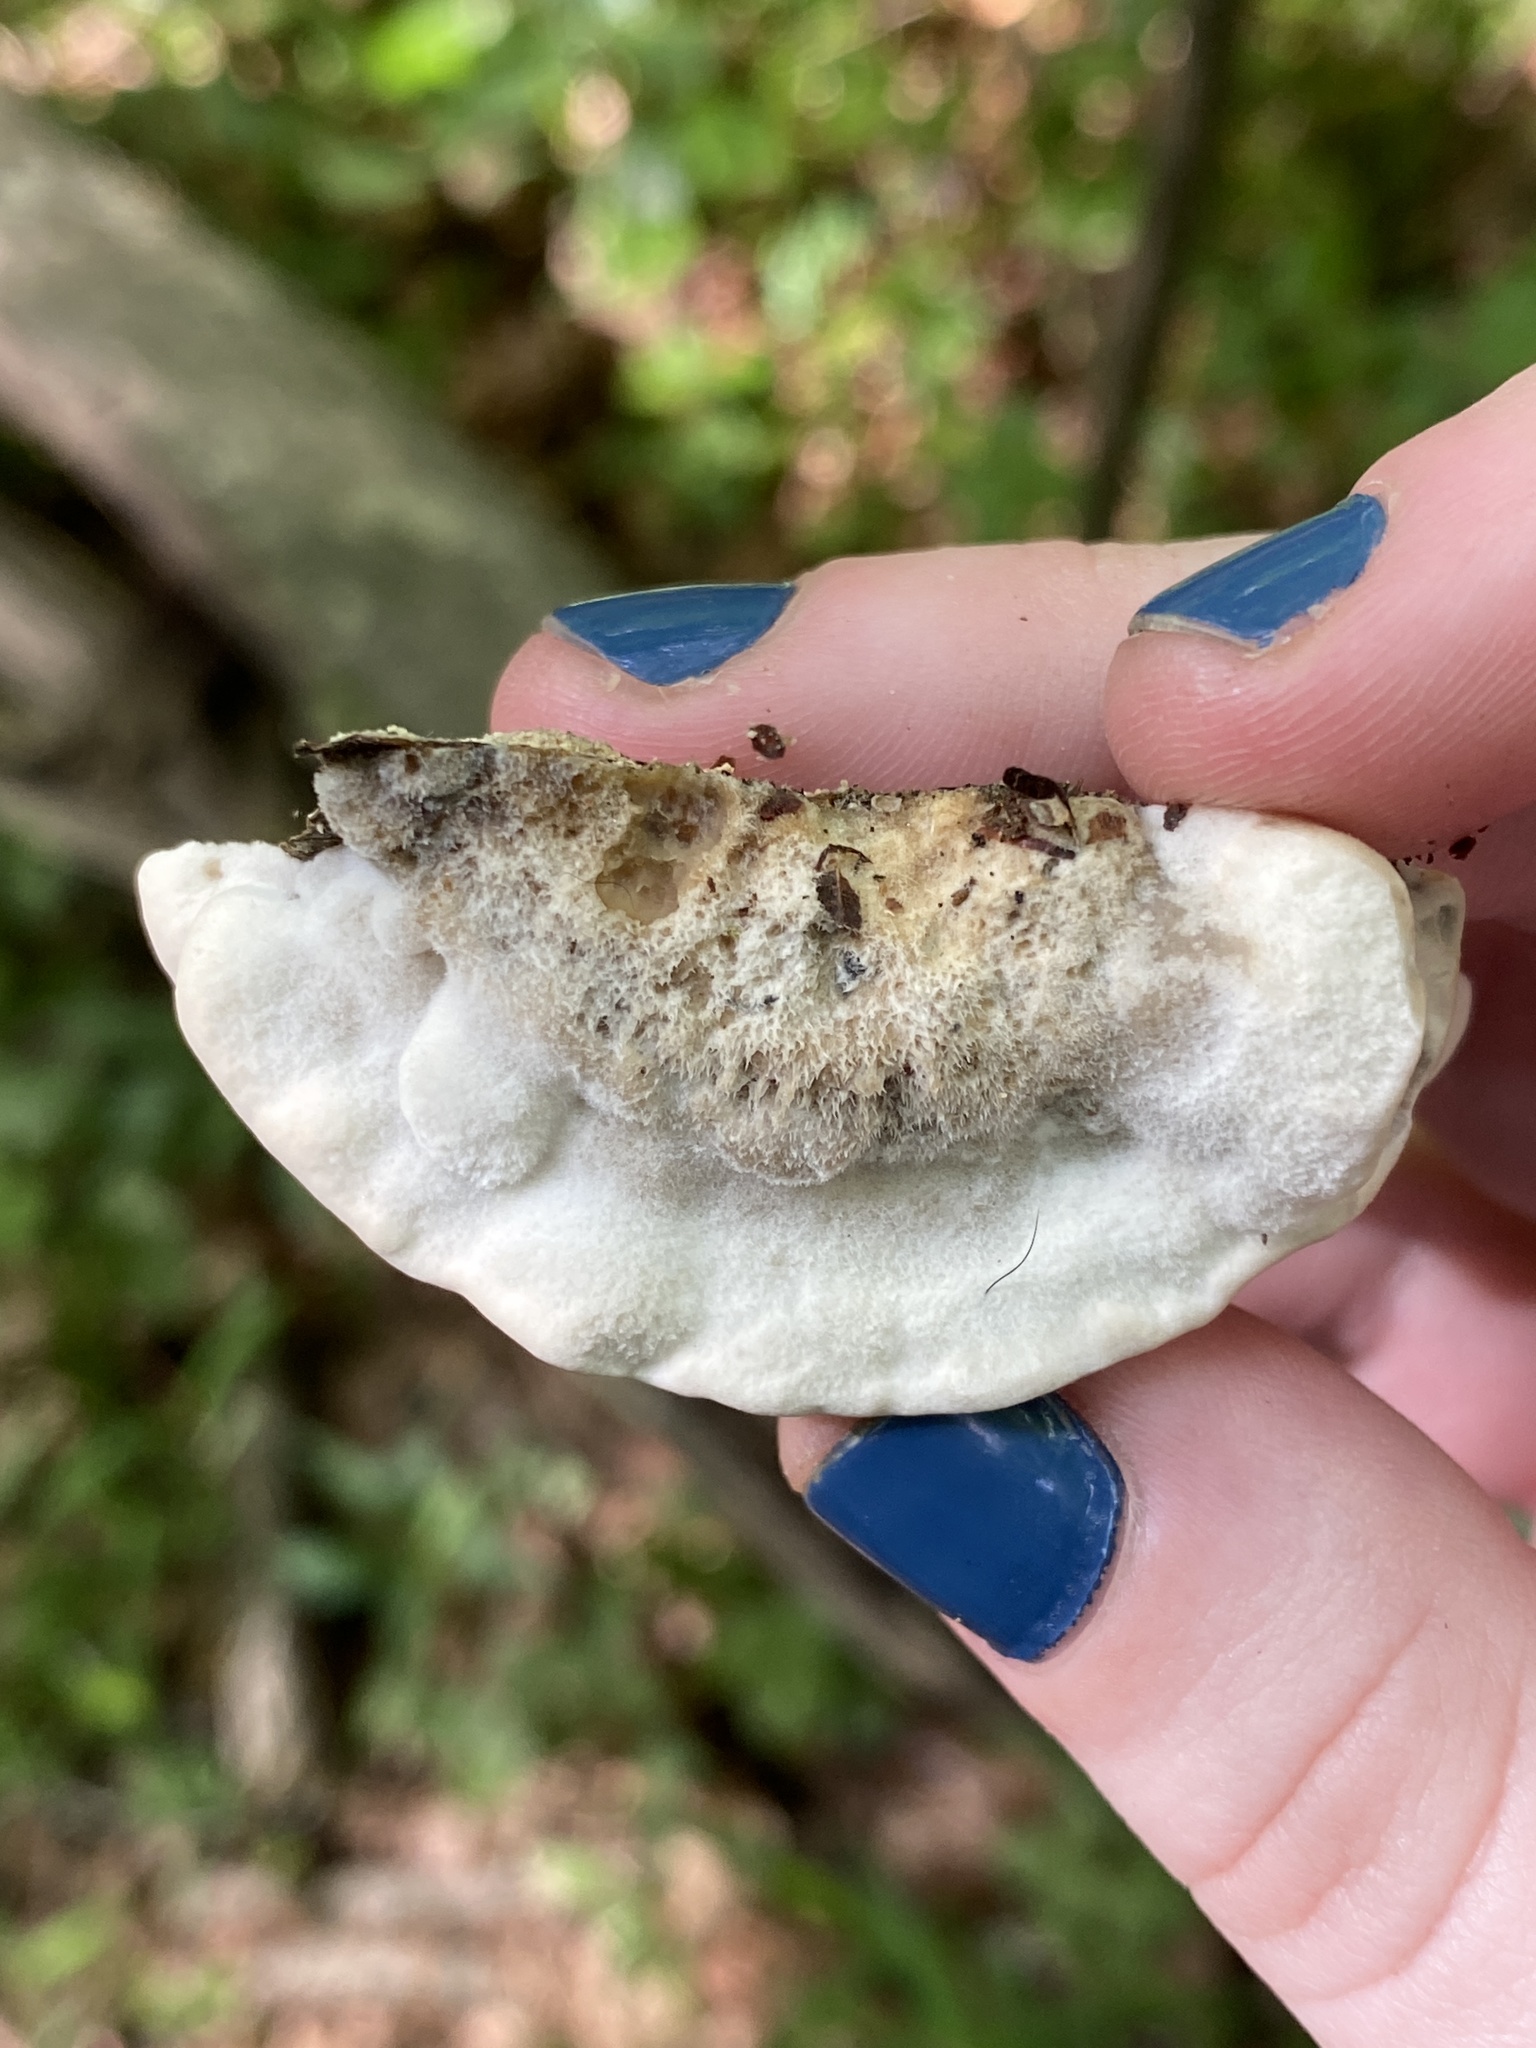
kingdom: Fungi
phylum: Basidiomycota
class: Agaricomycetes
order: Polyporales
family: Phanerochaetaceae
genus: Bjerkandera
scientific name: Bjerkandera adusta
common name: Smoky bracket
